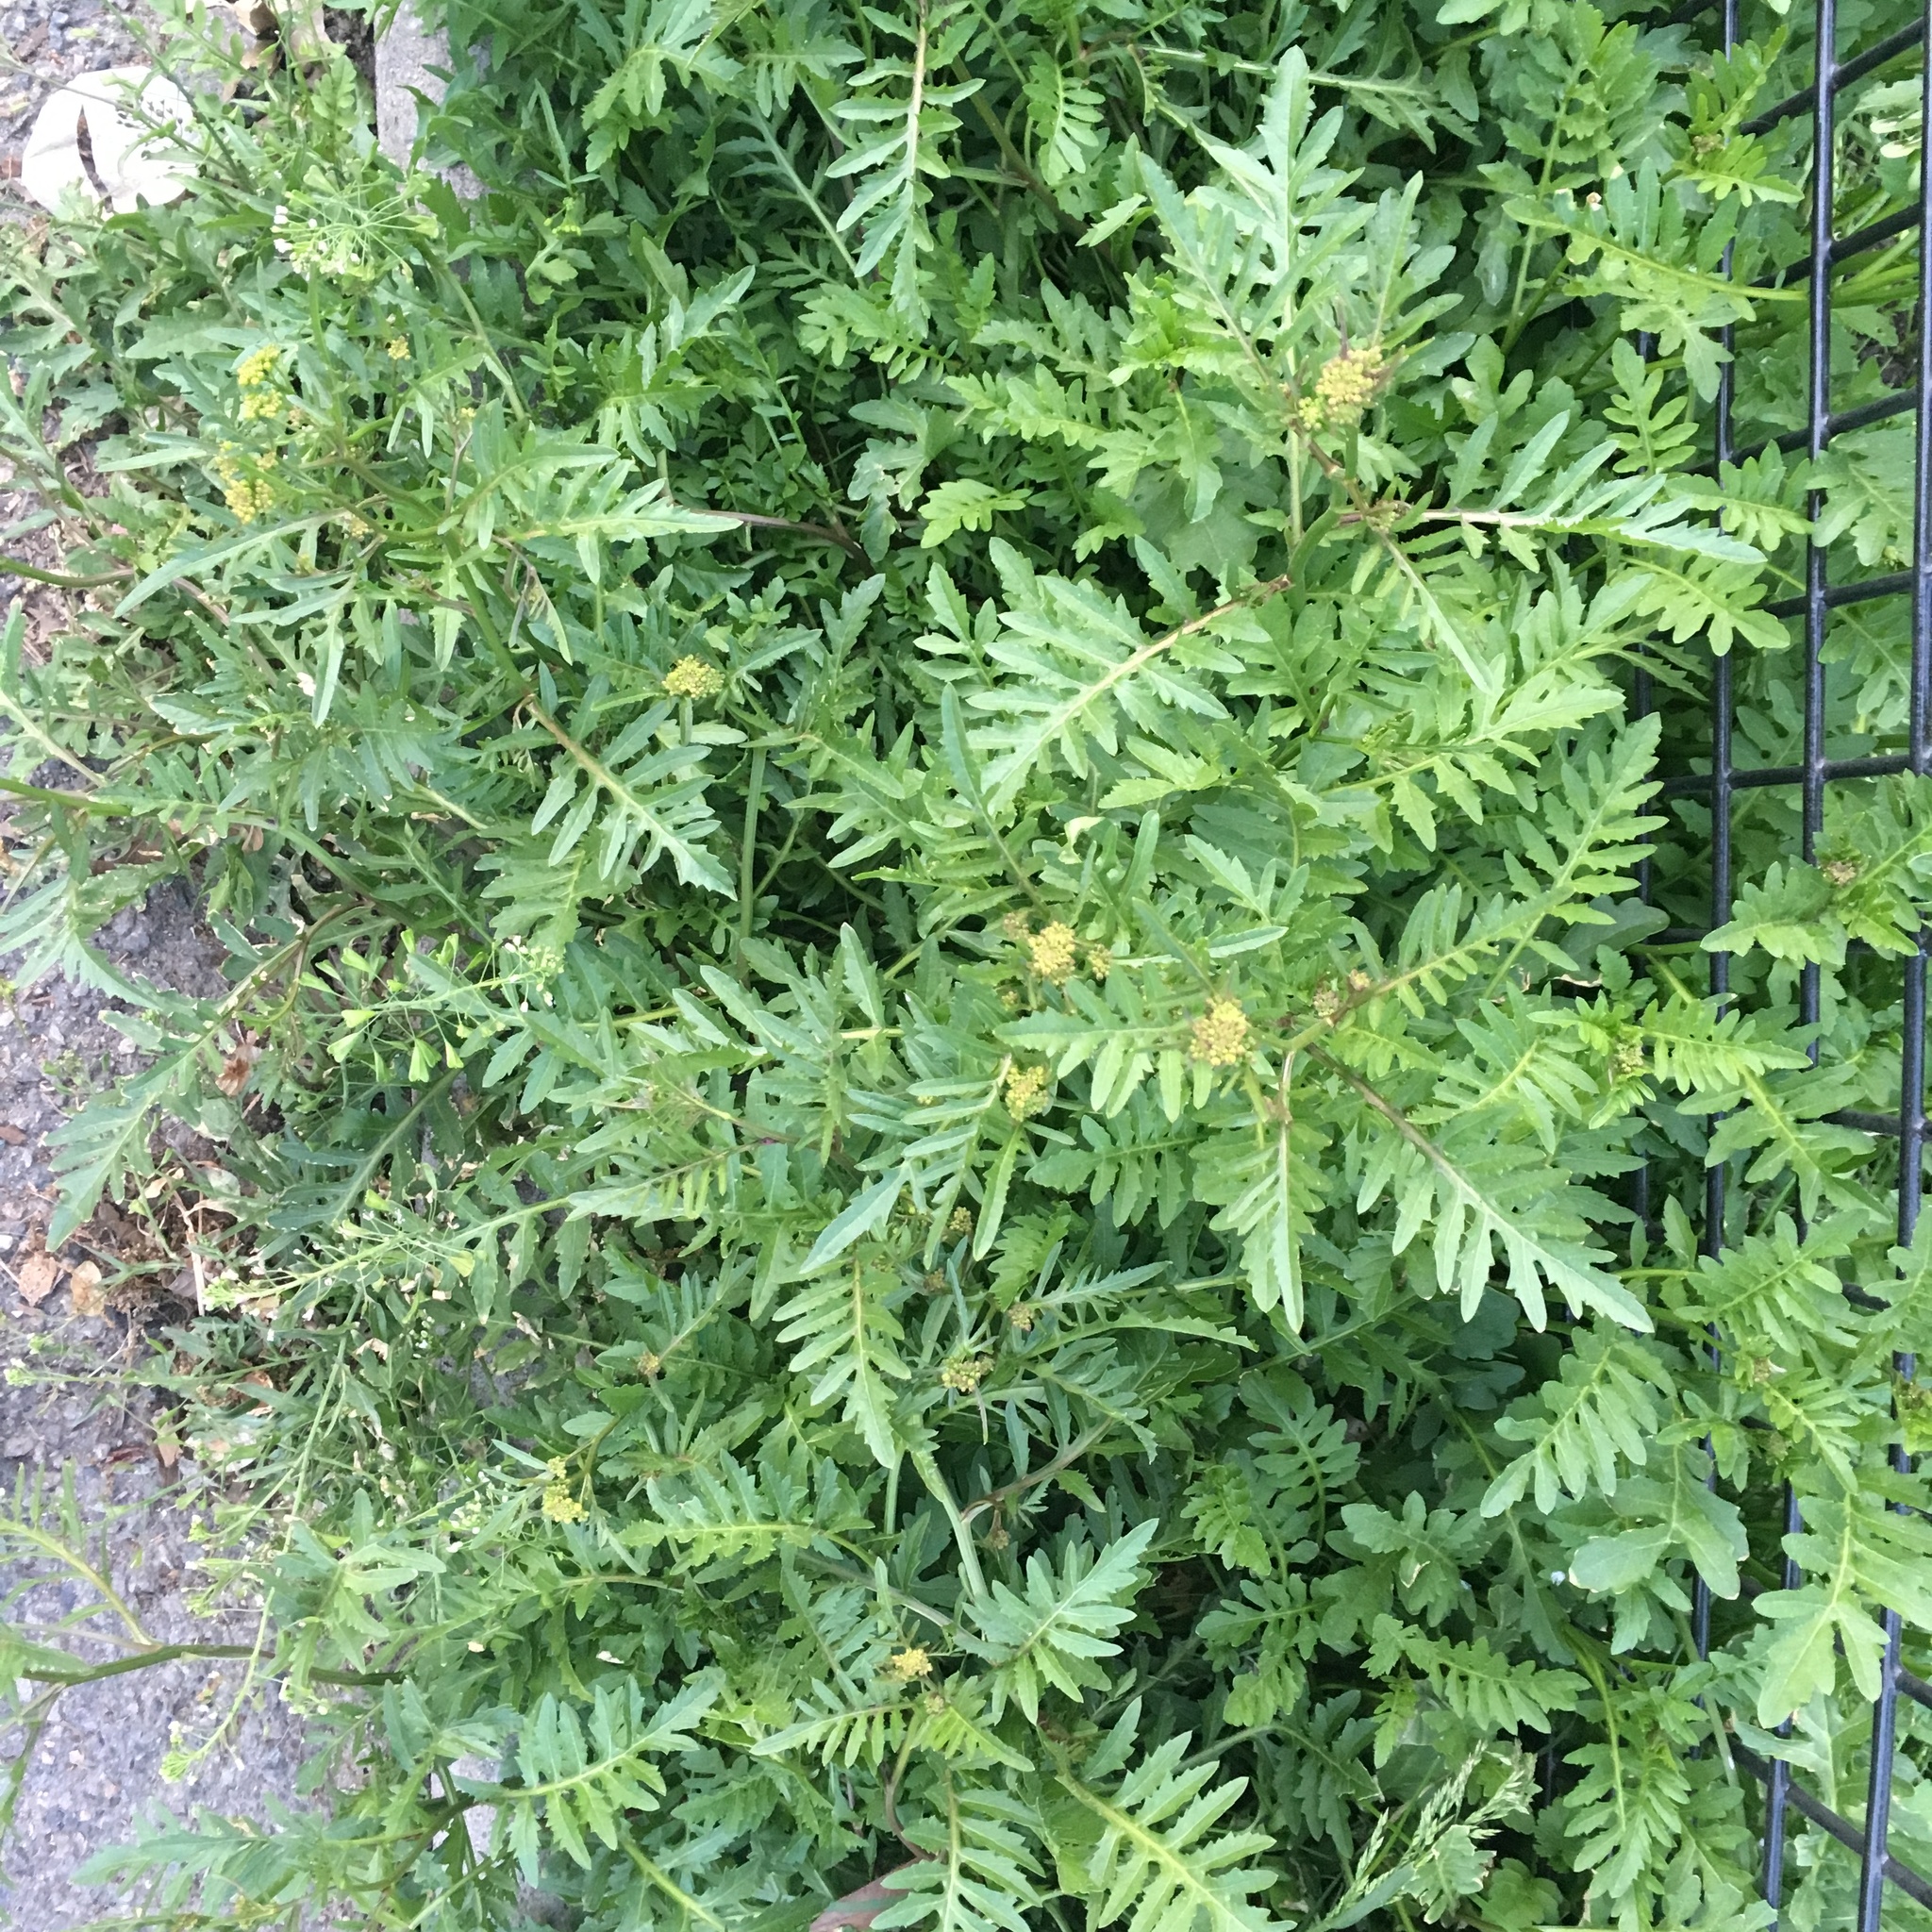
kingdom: Plantae
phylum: Tracheophyta
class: Magnoliopsida
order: Brassicales
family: Brassicaceae
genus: Rorippa
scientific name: Rorippa sylvestris
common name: Creeping yellowcress
